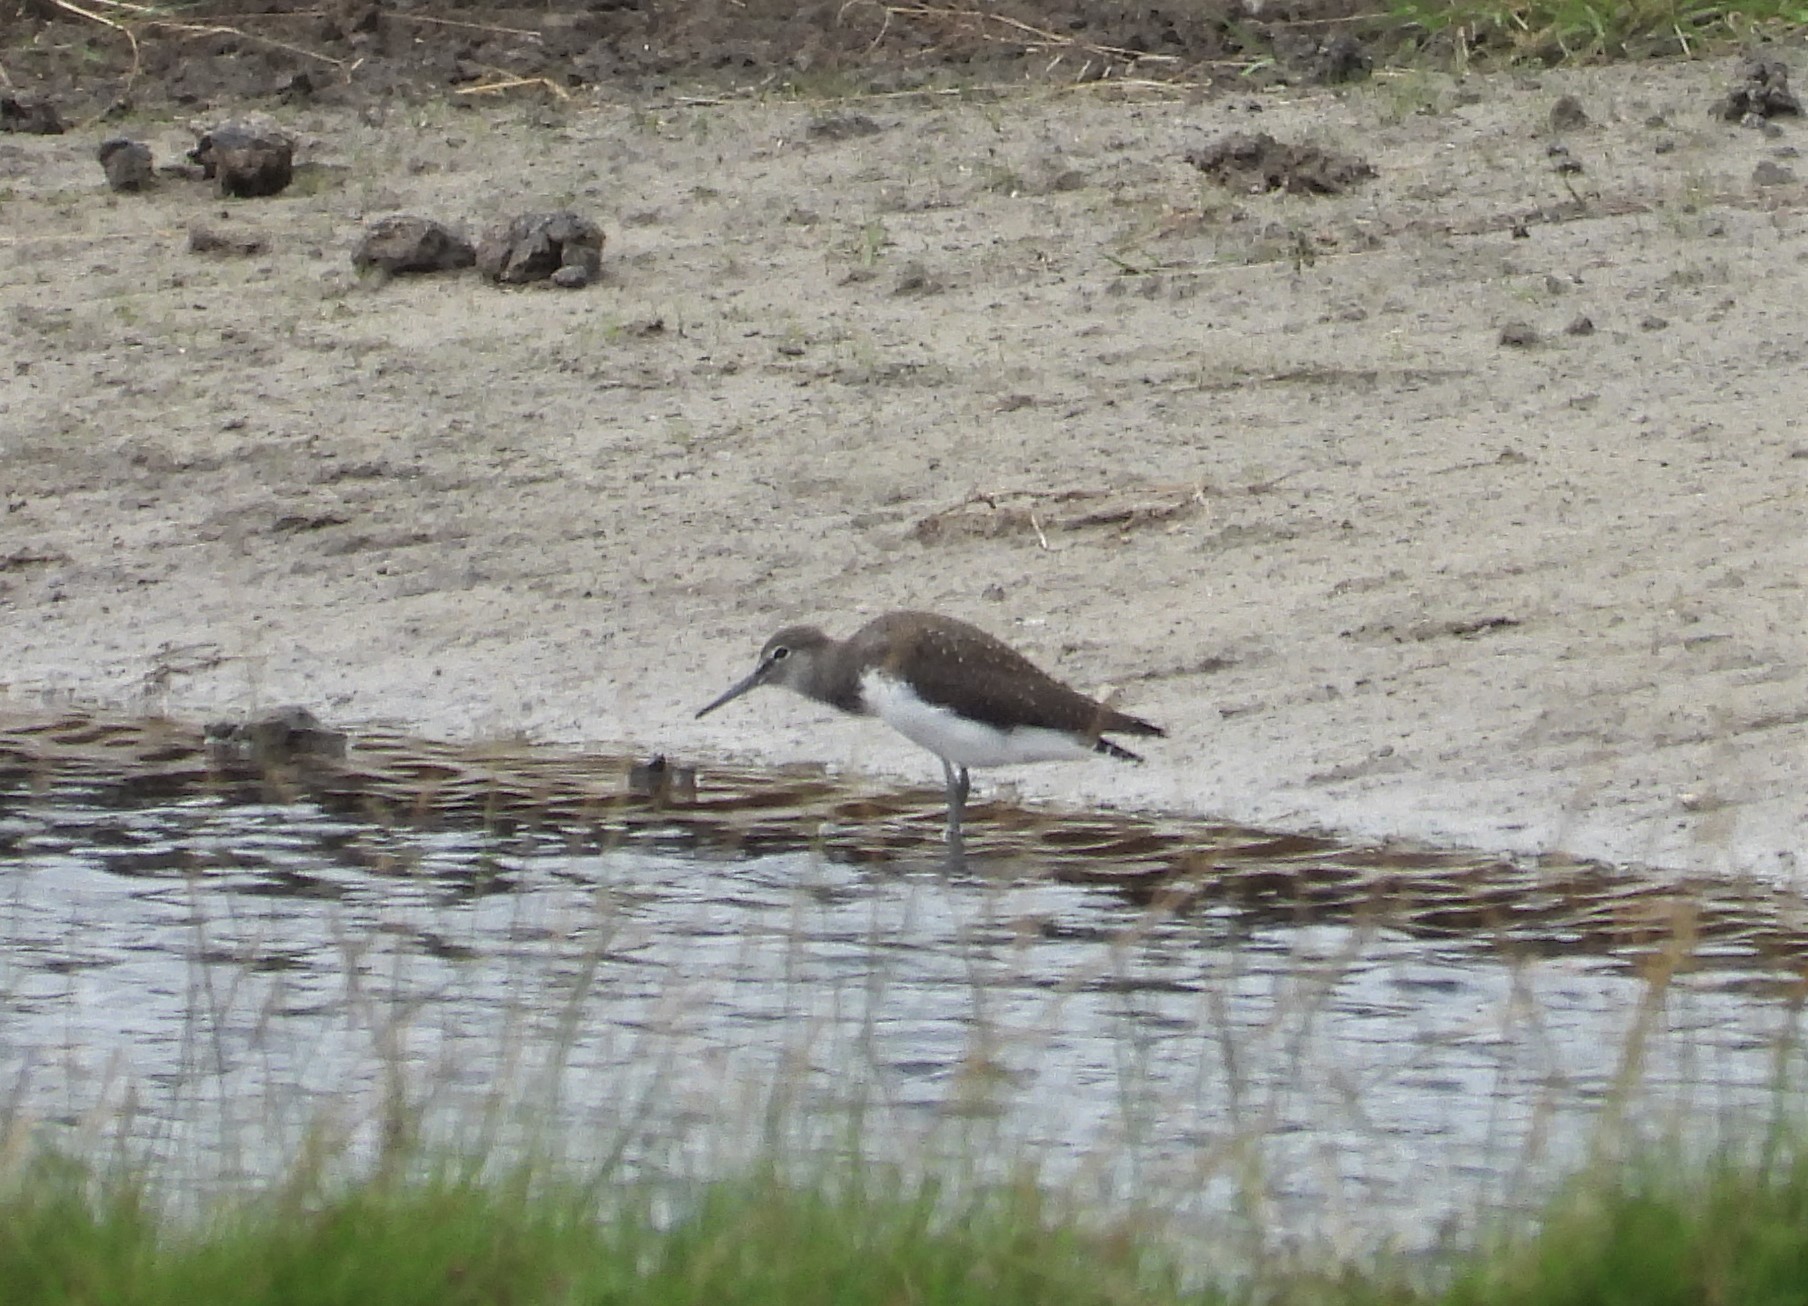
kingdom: Animalia
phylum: Chordata
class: Aves
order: Charadriiformes
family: Scolopacidae
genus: Tringa
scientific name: Tringa ochropus
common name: Green sandpiper
